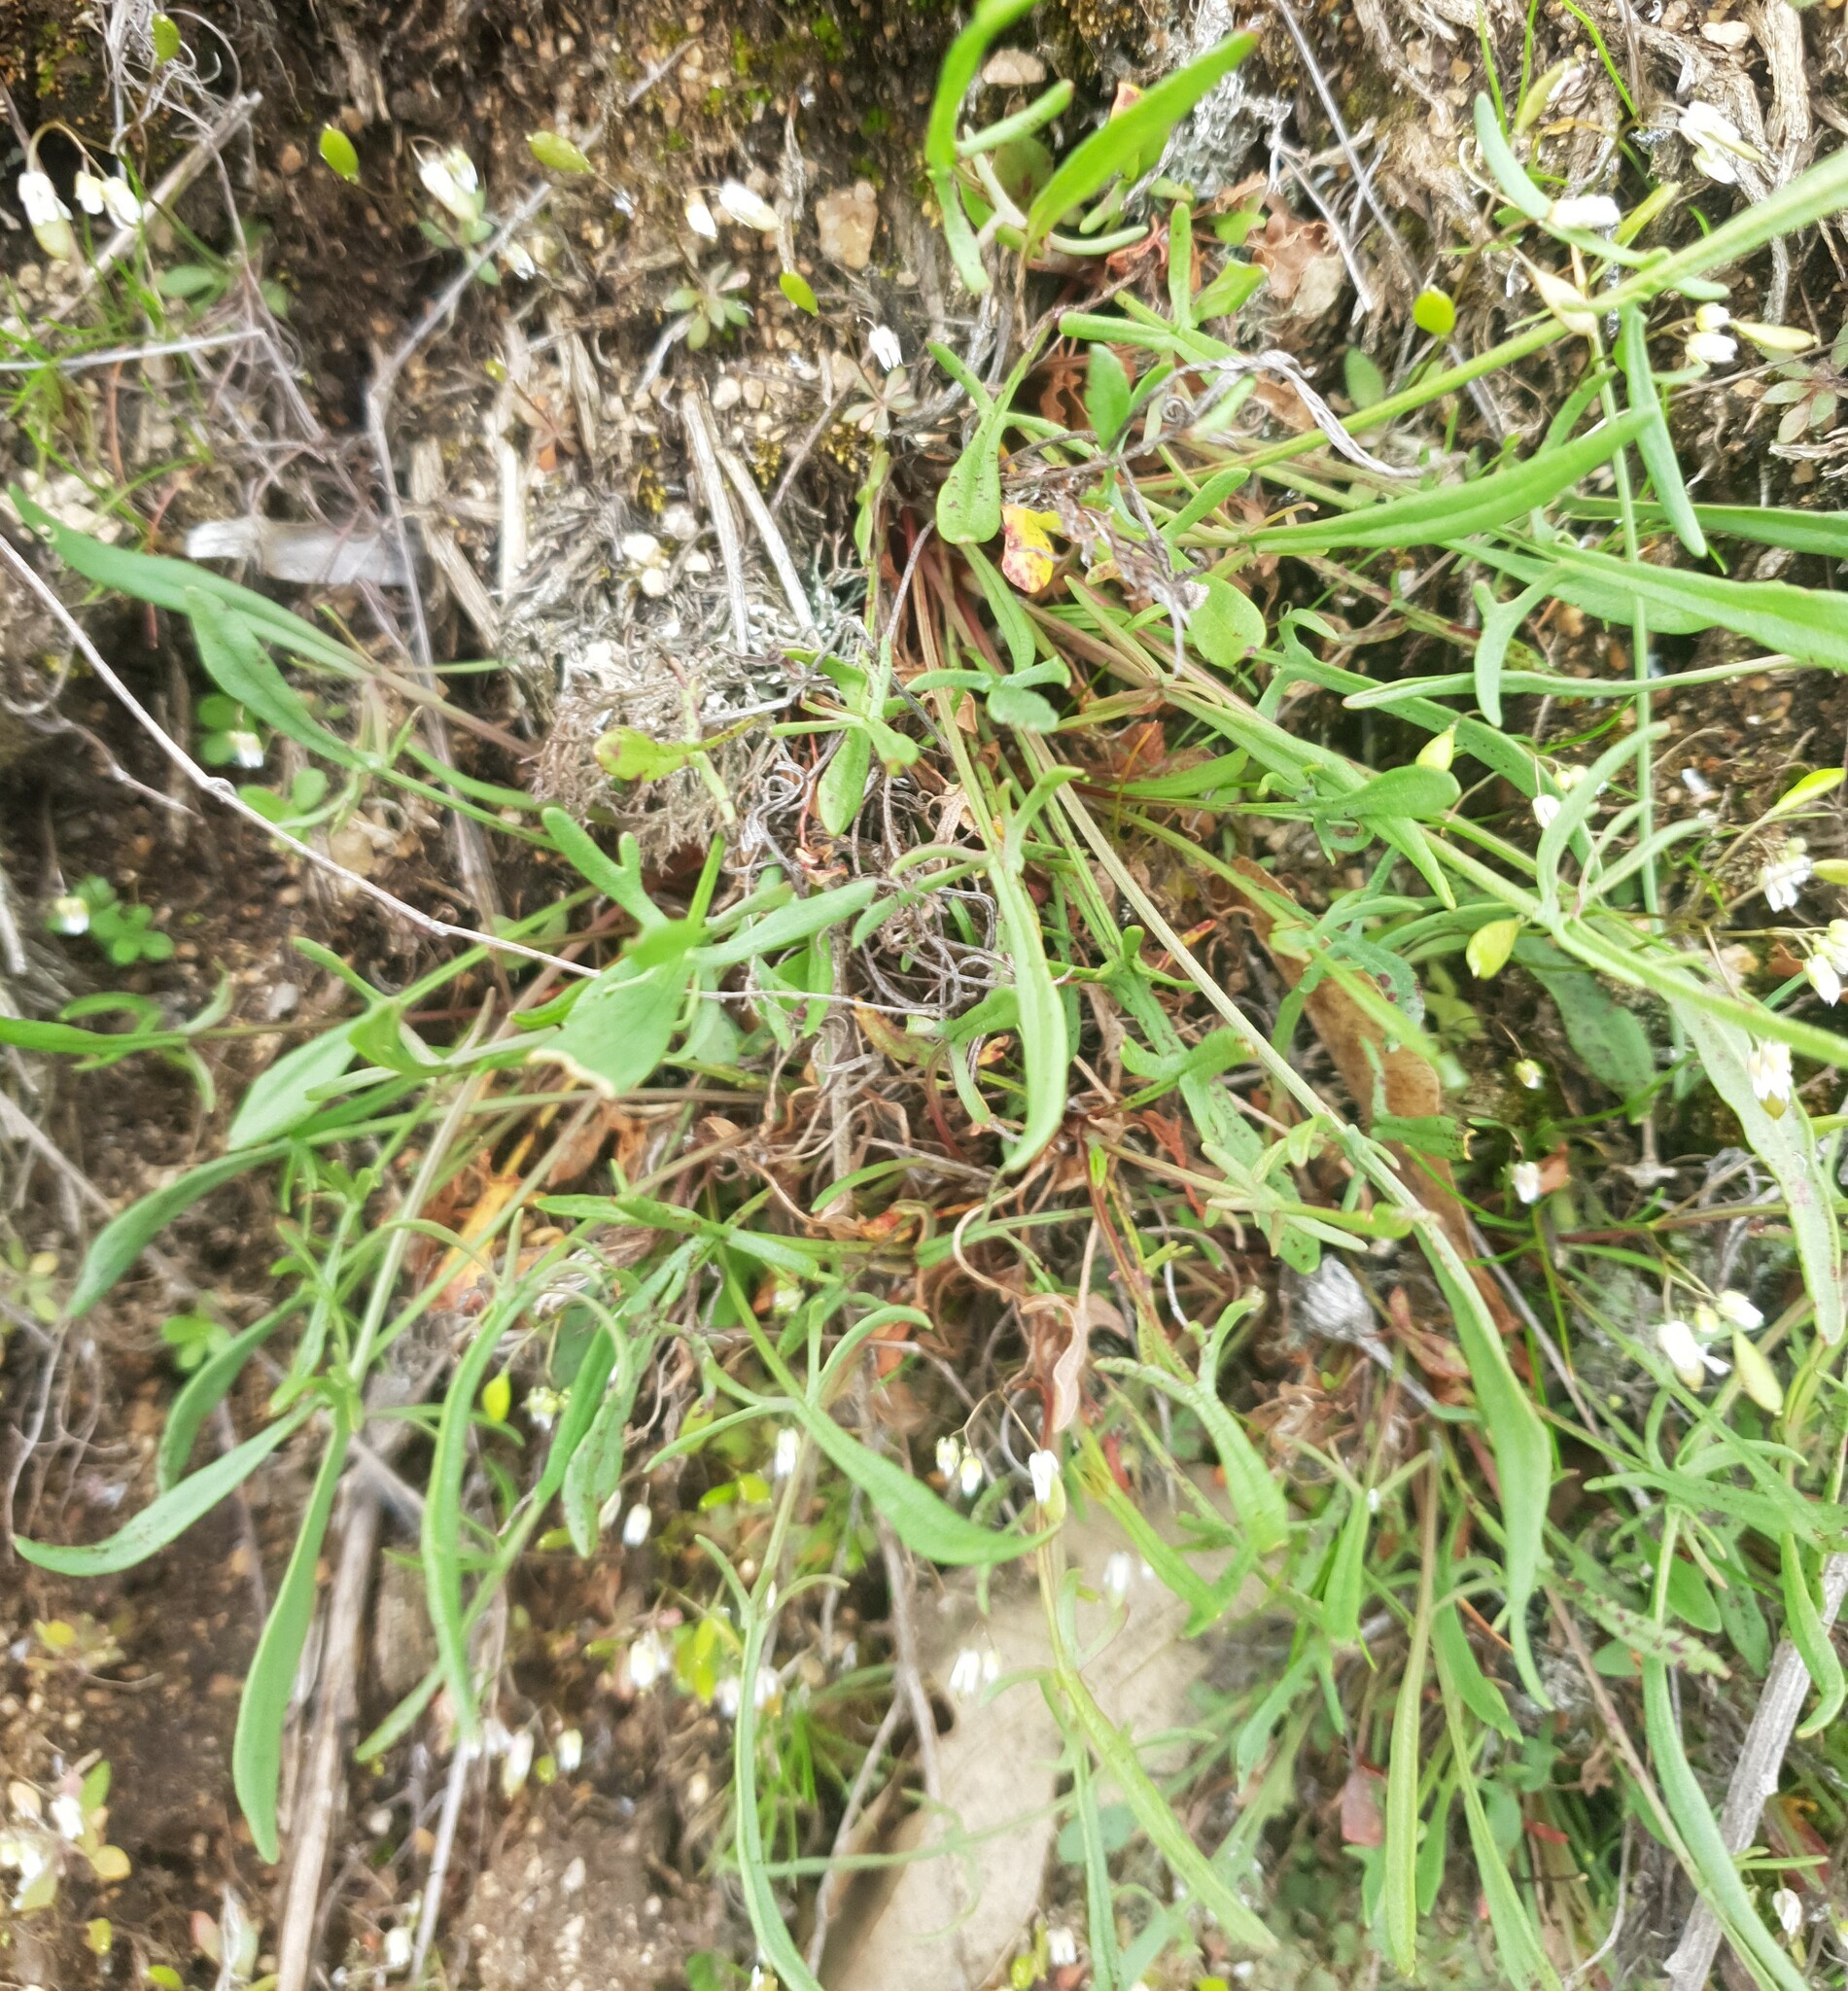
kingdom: Plantae
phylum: Tracheophyta
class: Magnoliopsida
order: Caryophyllales
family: Polygonaceae
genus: Rumex
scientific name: Rumex acetosella
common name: Common sheep sorrel
